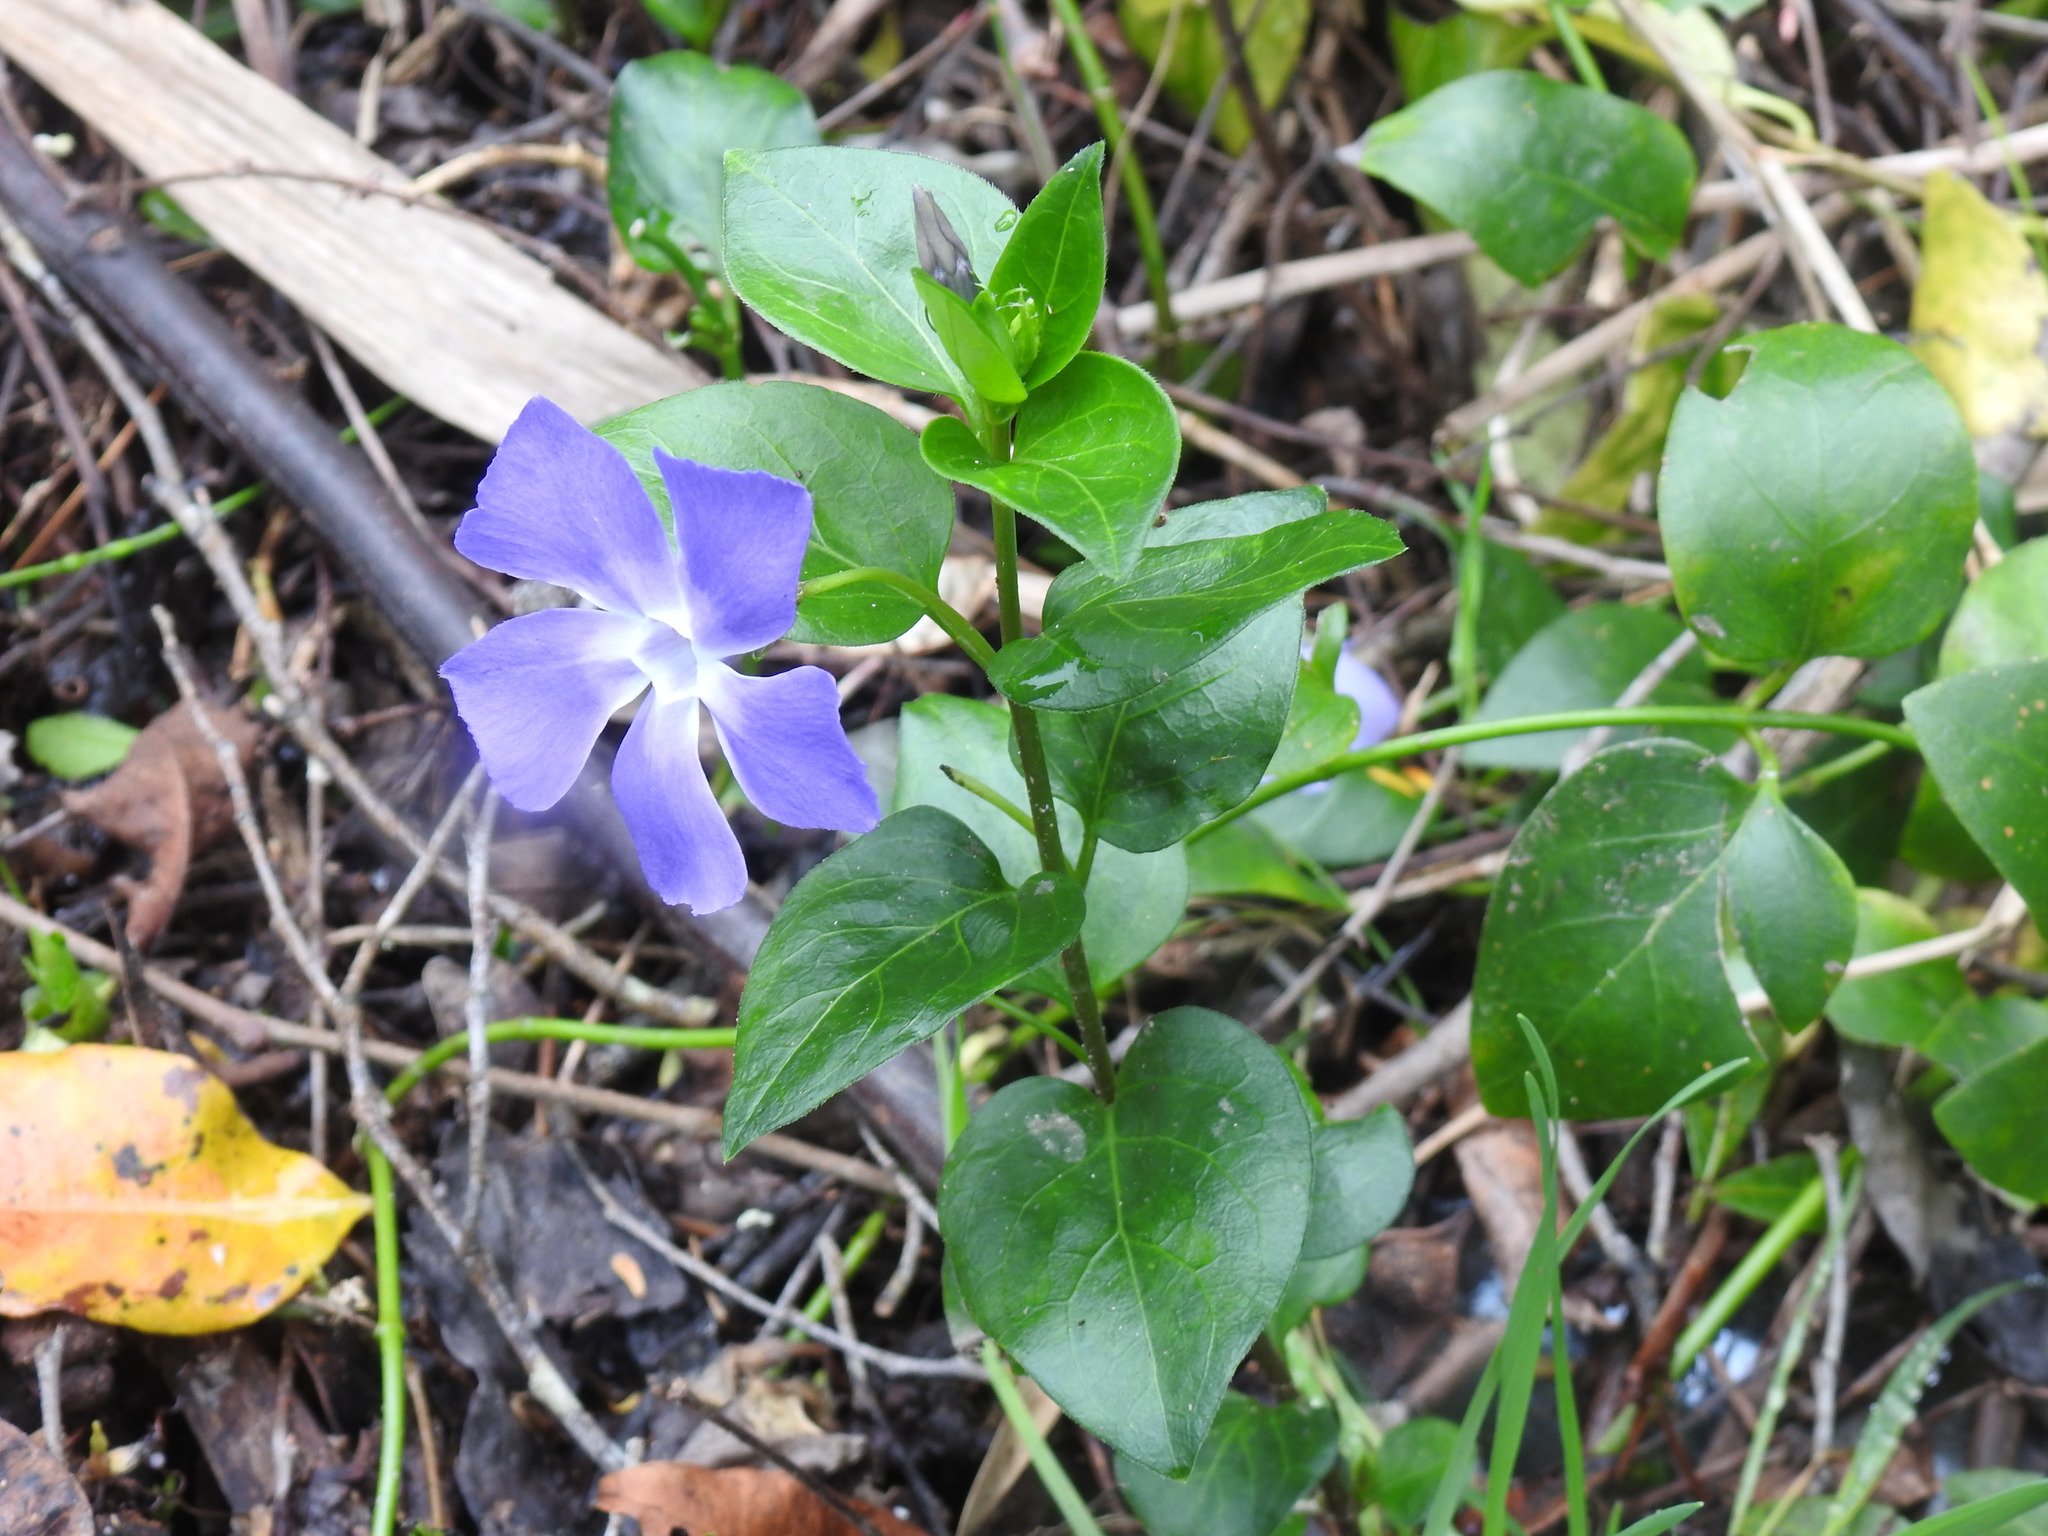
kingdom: Plantae
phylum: Tracheophyta
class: Magnoliopsida
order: Gentianales
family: Apocynaceae
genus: Vinca
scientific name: Vinca major
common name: Greater periwinkle
